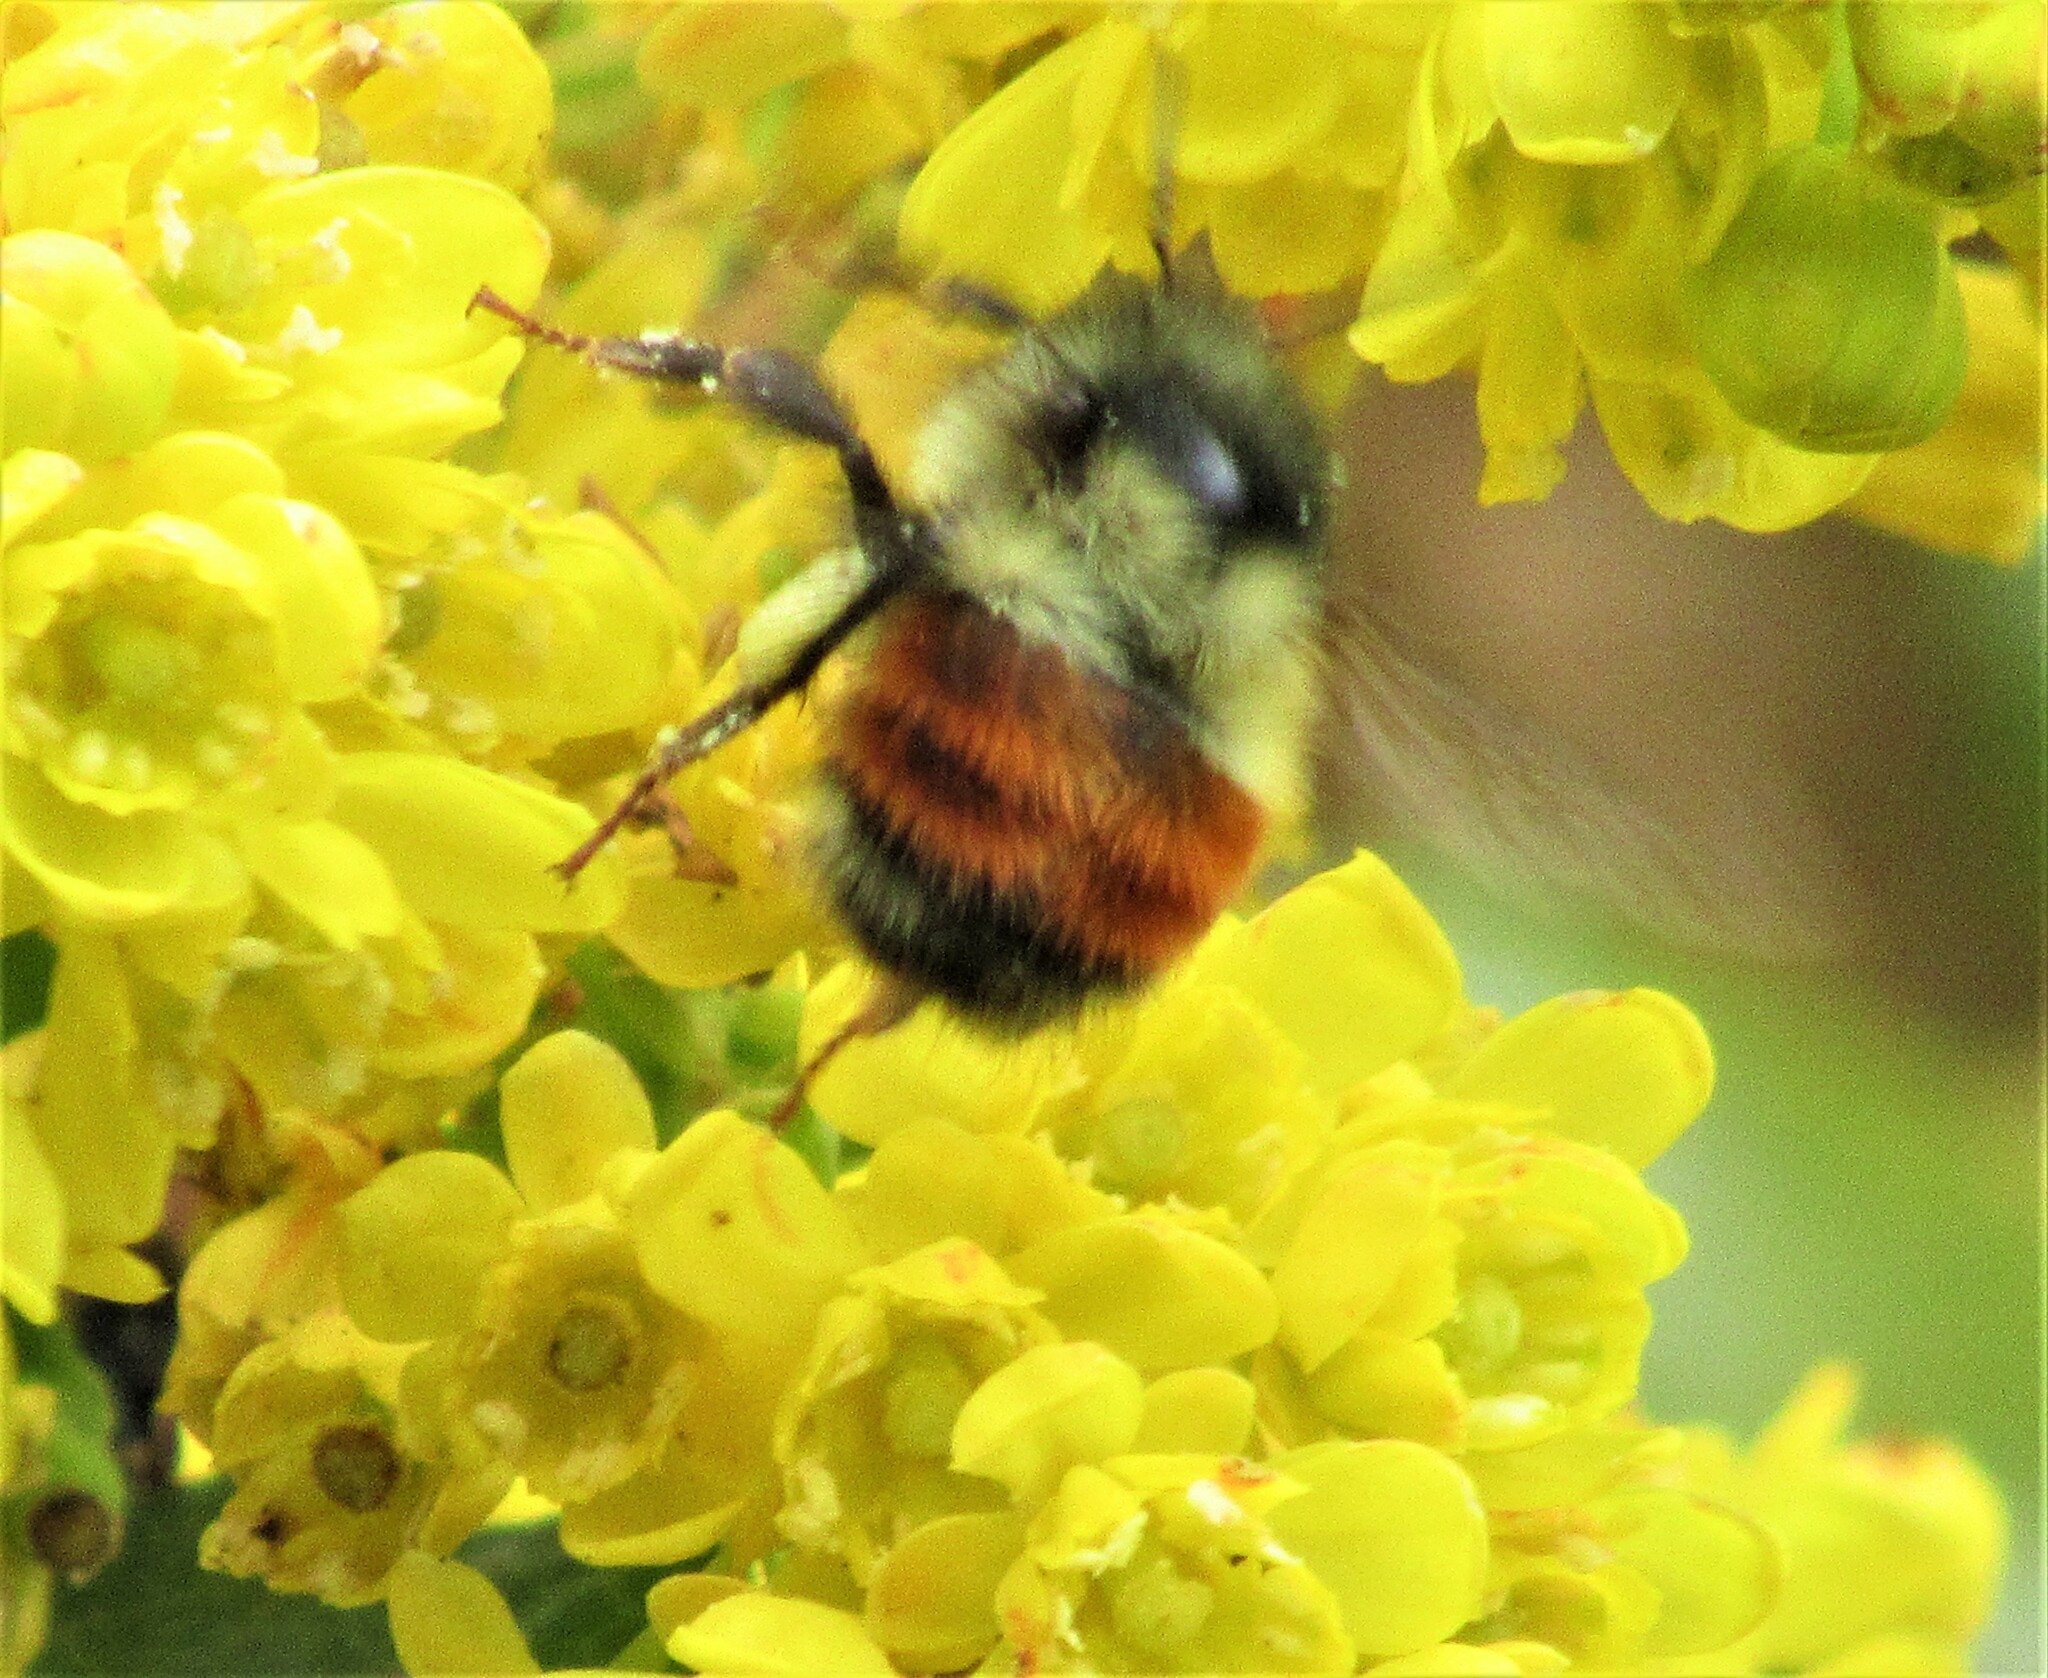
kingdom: Animalia
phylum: Arthropoda
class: Insecta
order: Hymenoptera
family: Apidae
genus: Bombus
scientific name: Bombus melanopygus
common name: Black tail bumble bee
